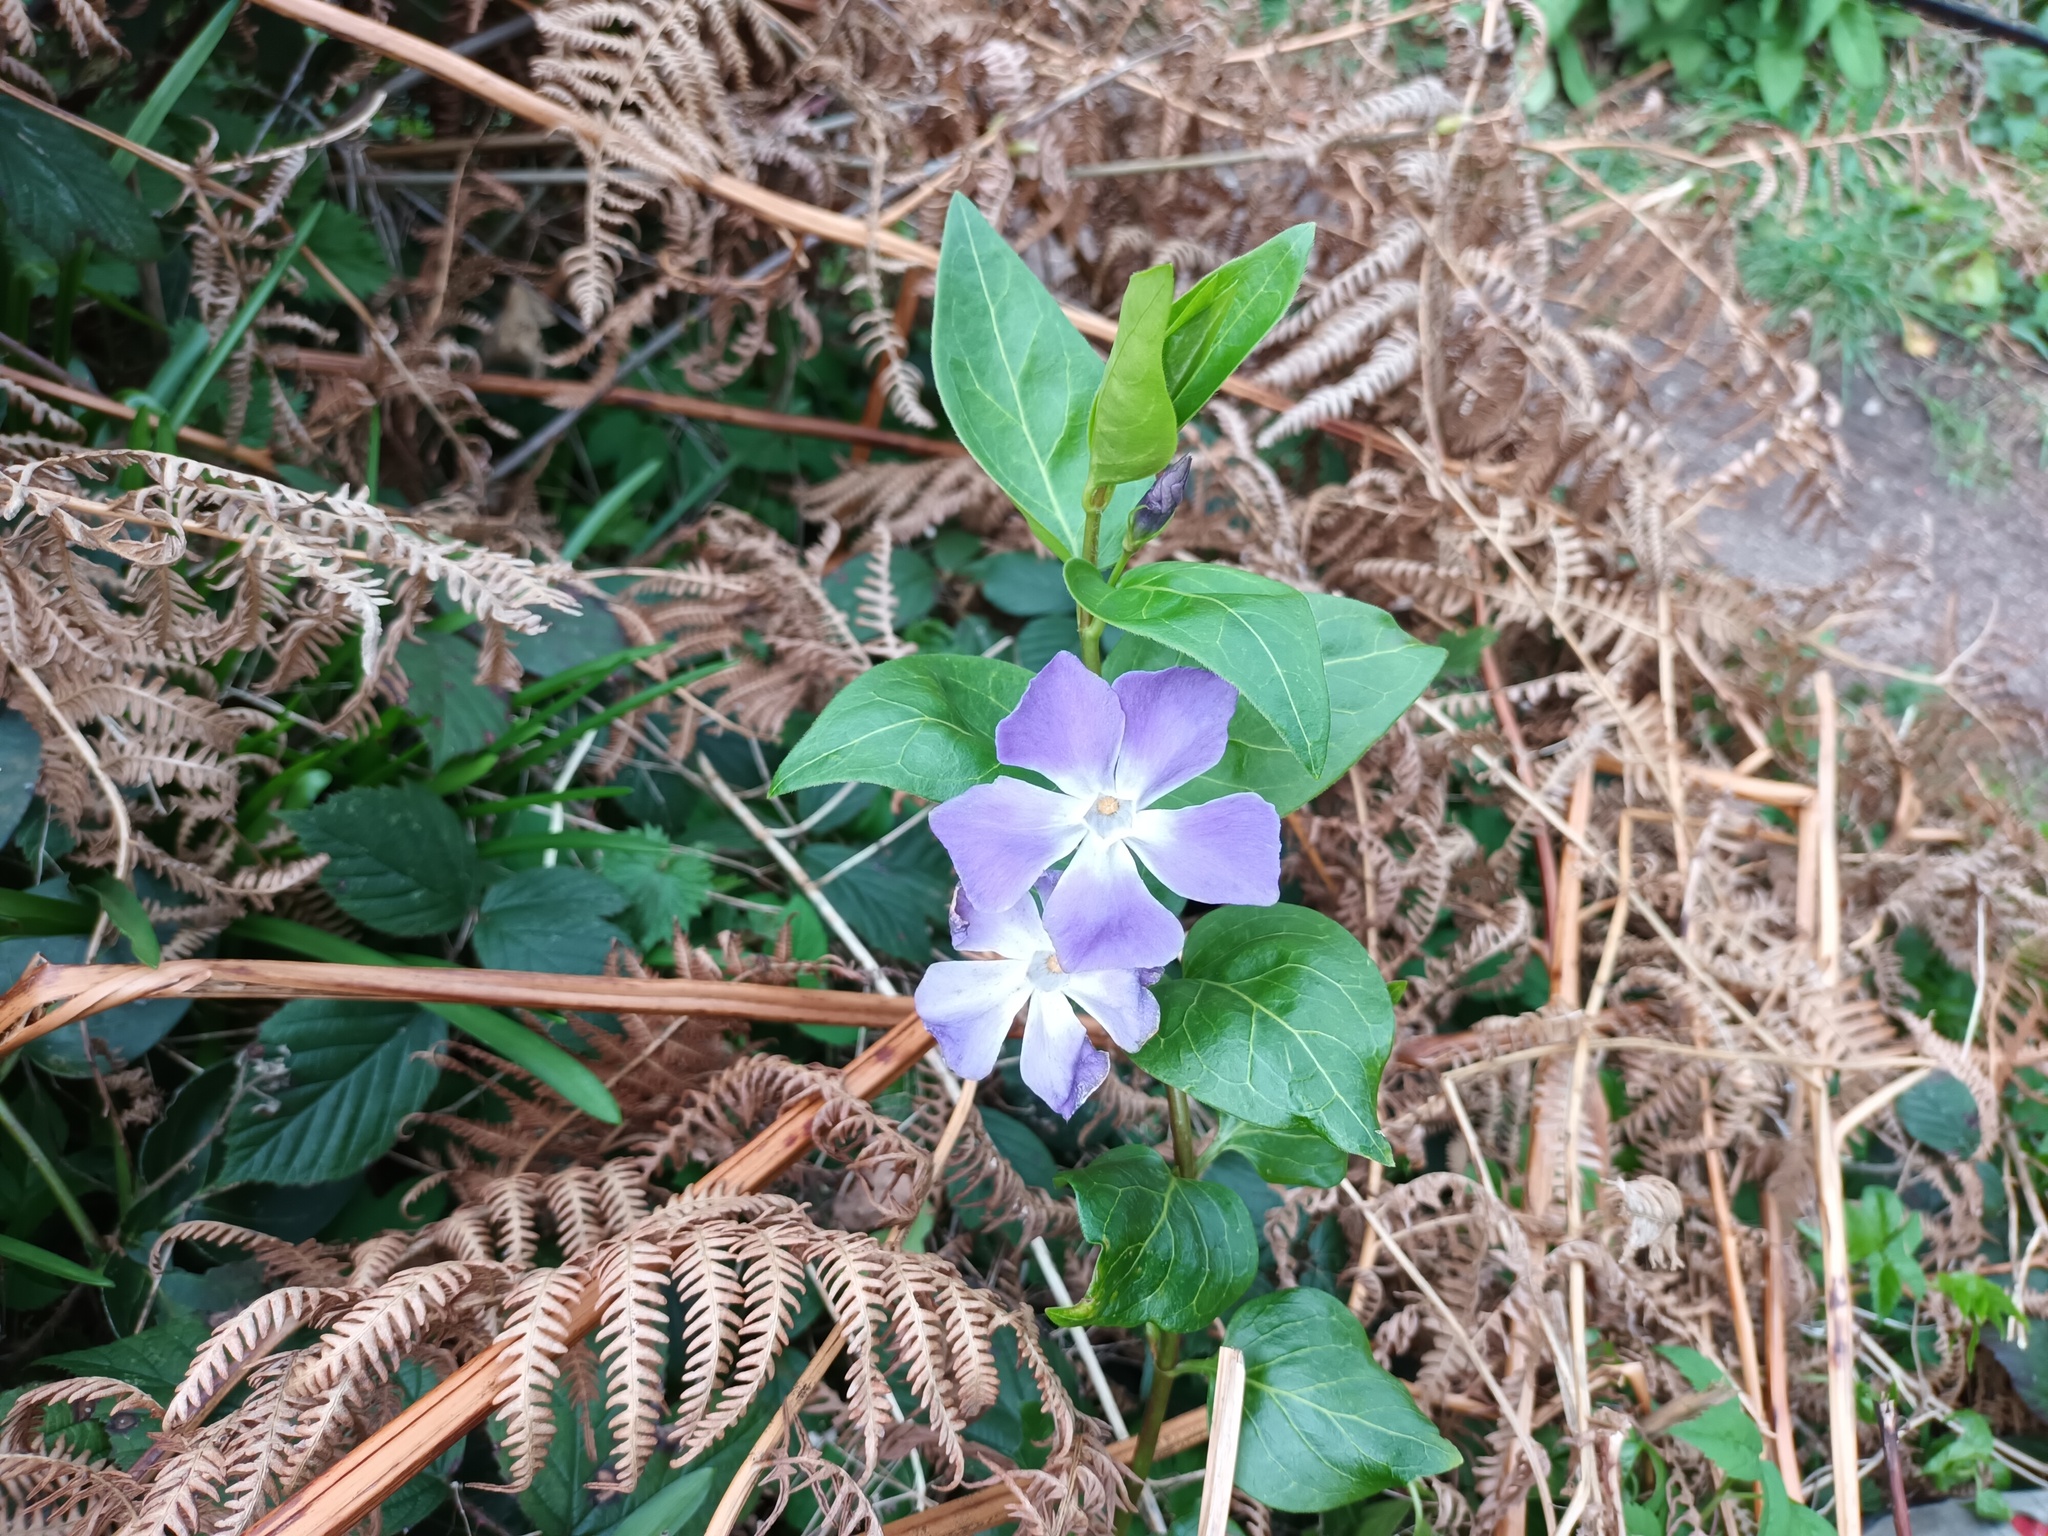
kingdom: Plantae
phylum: Tracheophyta
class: Magnoliopsida
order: Gentianales
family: Apocynaceae
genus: Vinca
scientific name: Vinca major
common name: Greater periwinkle
